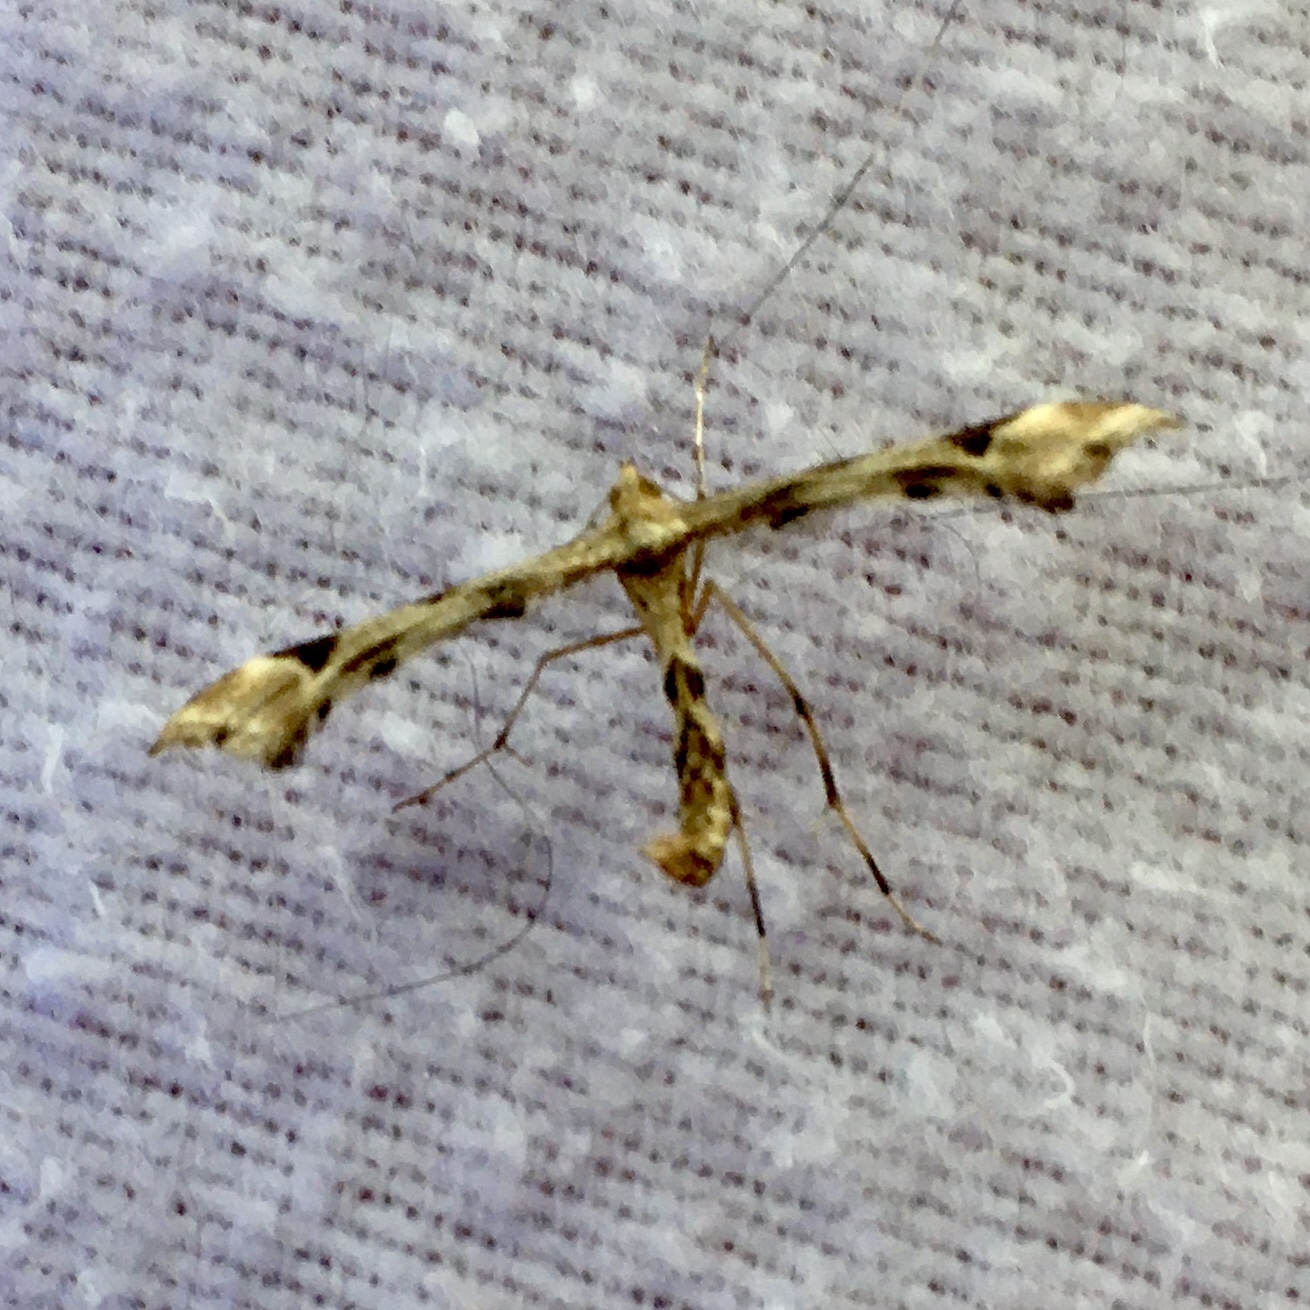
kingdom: Animalia
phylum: Arthropoda
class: Insecta
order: Lepidoptera
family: Pterophoridae
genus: Platyptilia
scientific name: Platyptilia carduidactylus
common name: Artichoke plume moth
